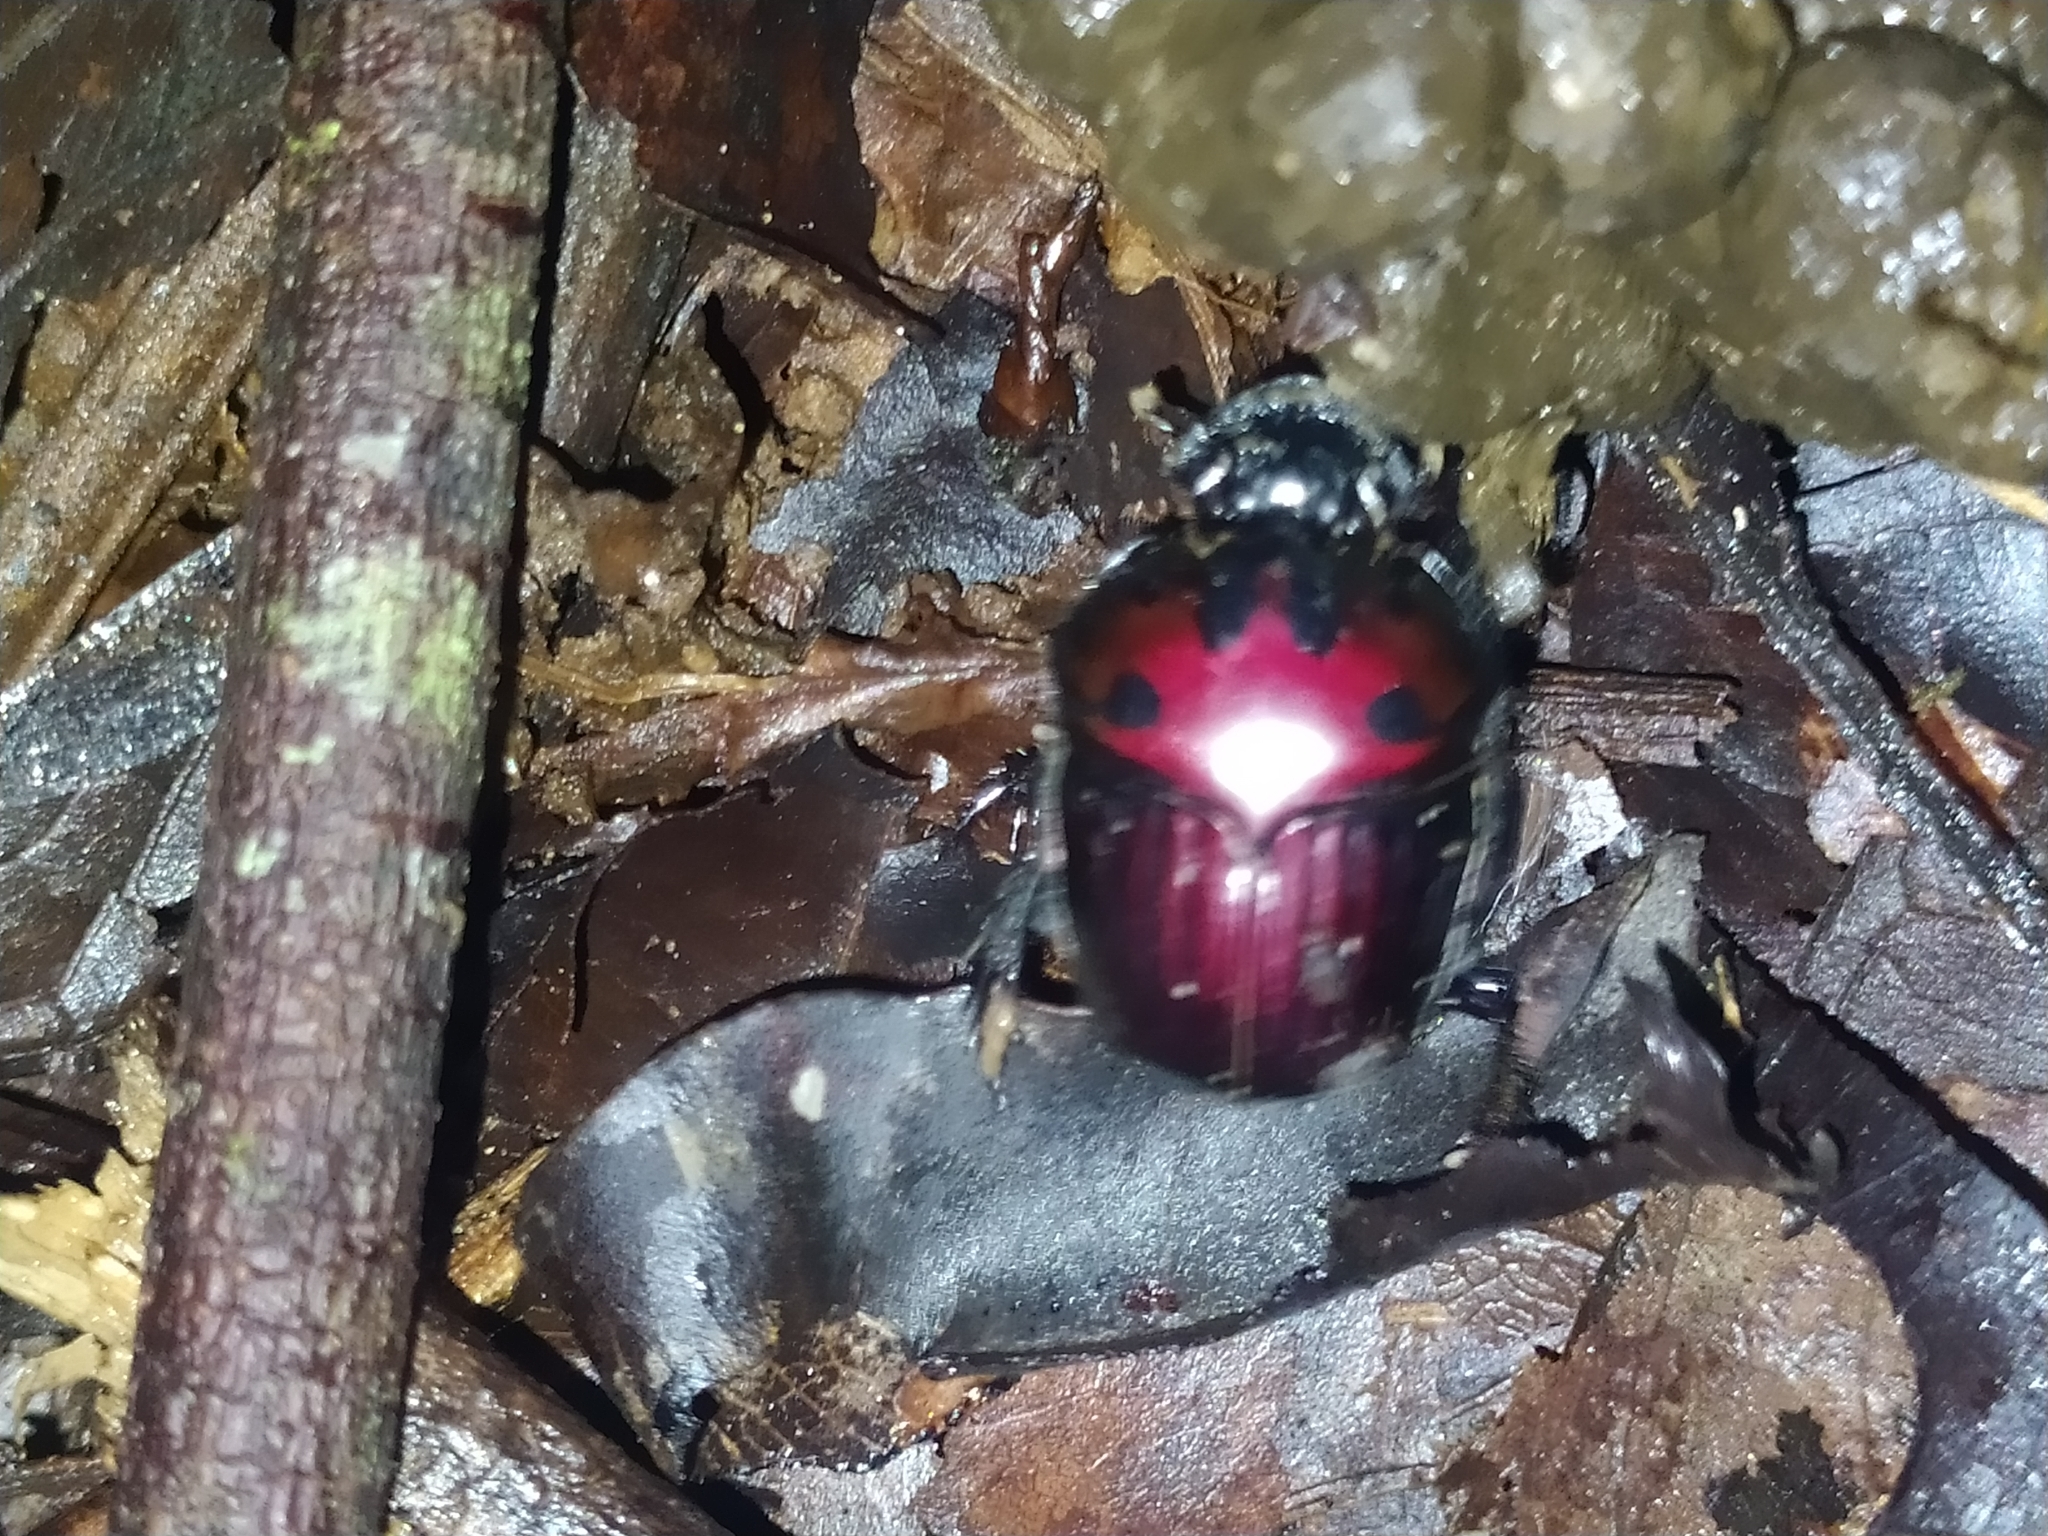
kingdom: Animalia
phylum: Arthropoda
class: Insecta
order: Coleoptera
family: Scarabaeidae
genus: Oxysternon
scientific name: Oxysternon festivum
